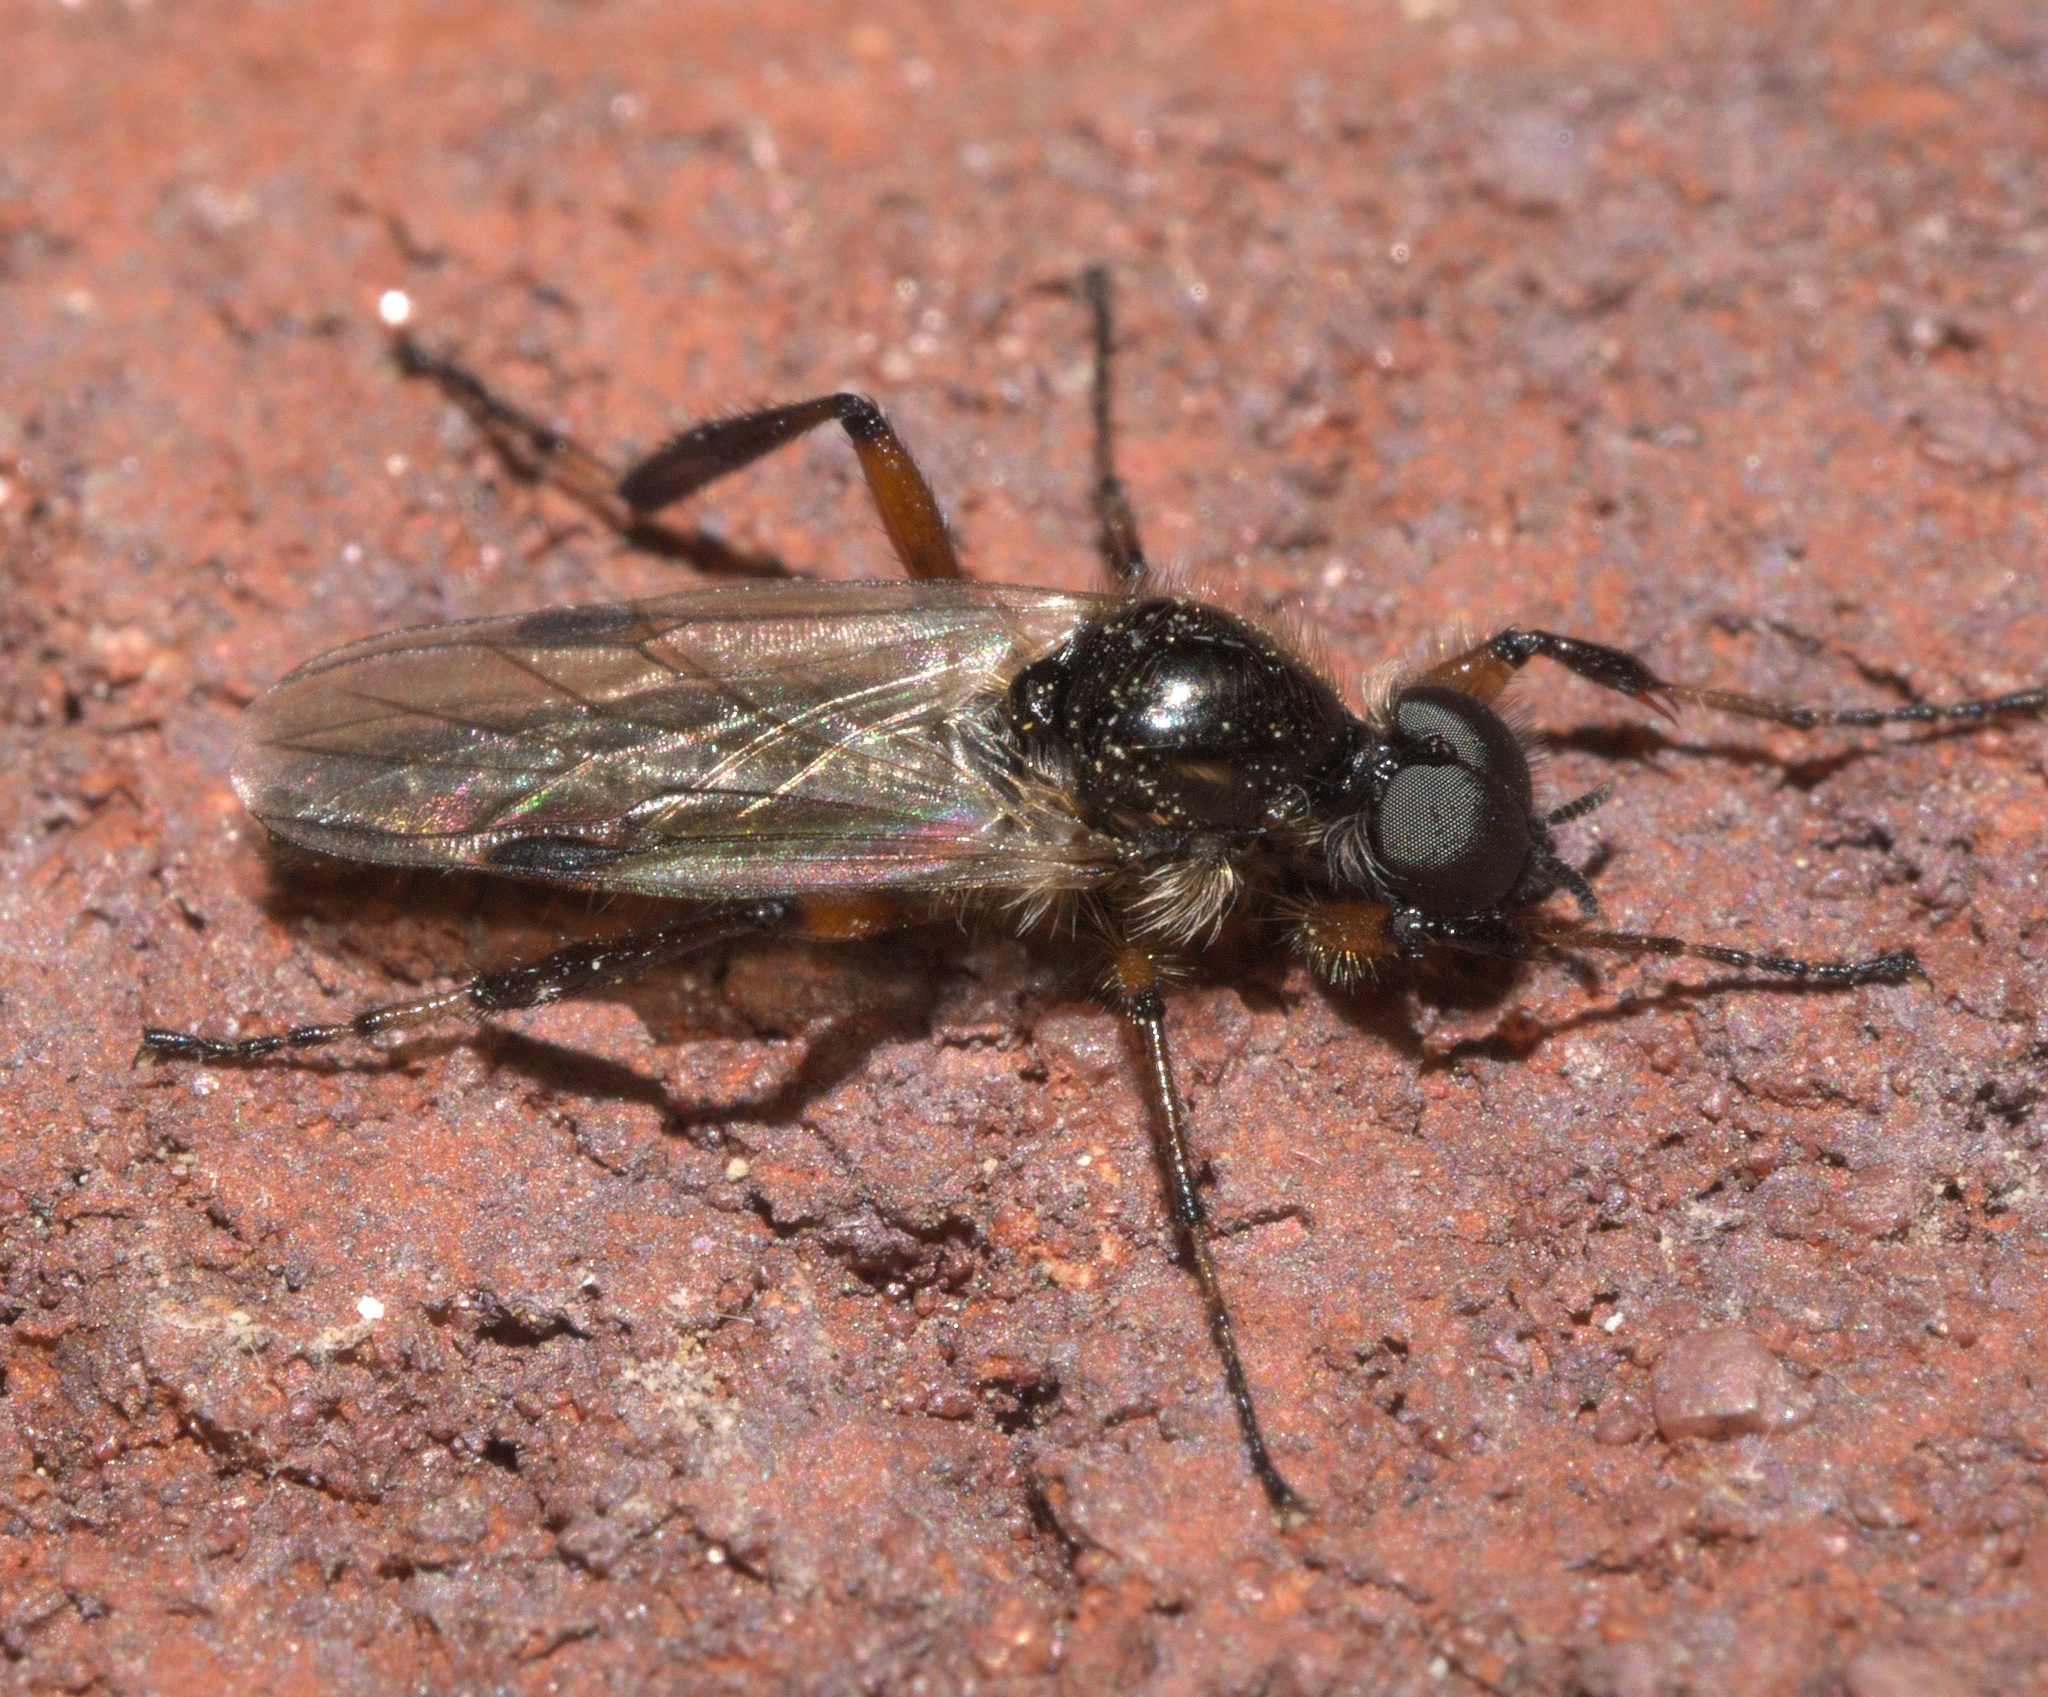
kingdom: Animalia
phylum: Arthropoda
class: Insecta
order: Diptera
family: Bibionidae
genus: Bibio
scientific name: Bibio articulatus
